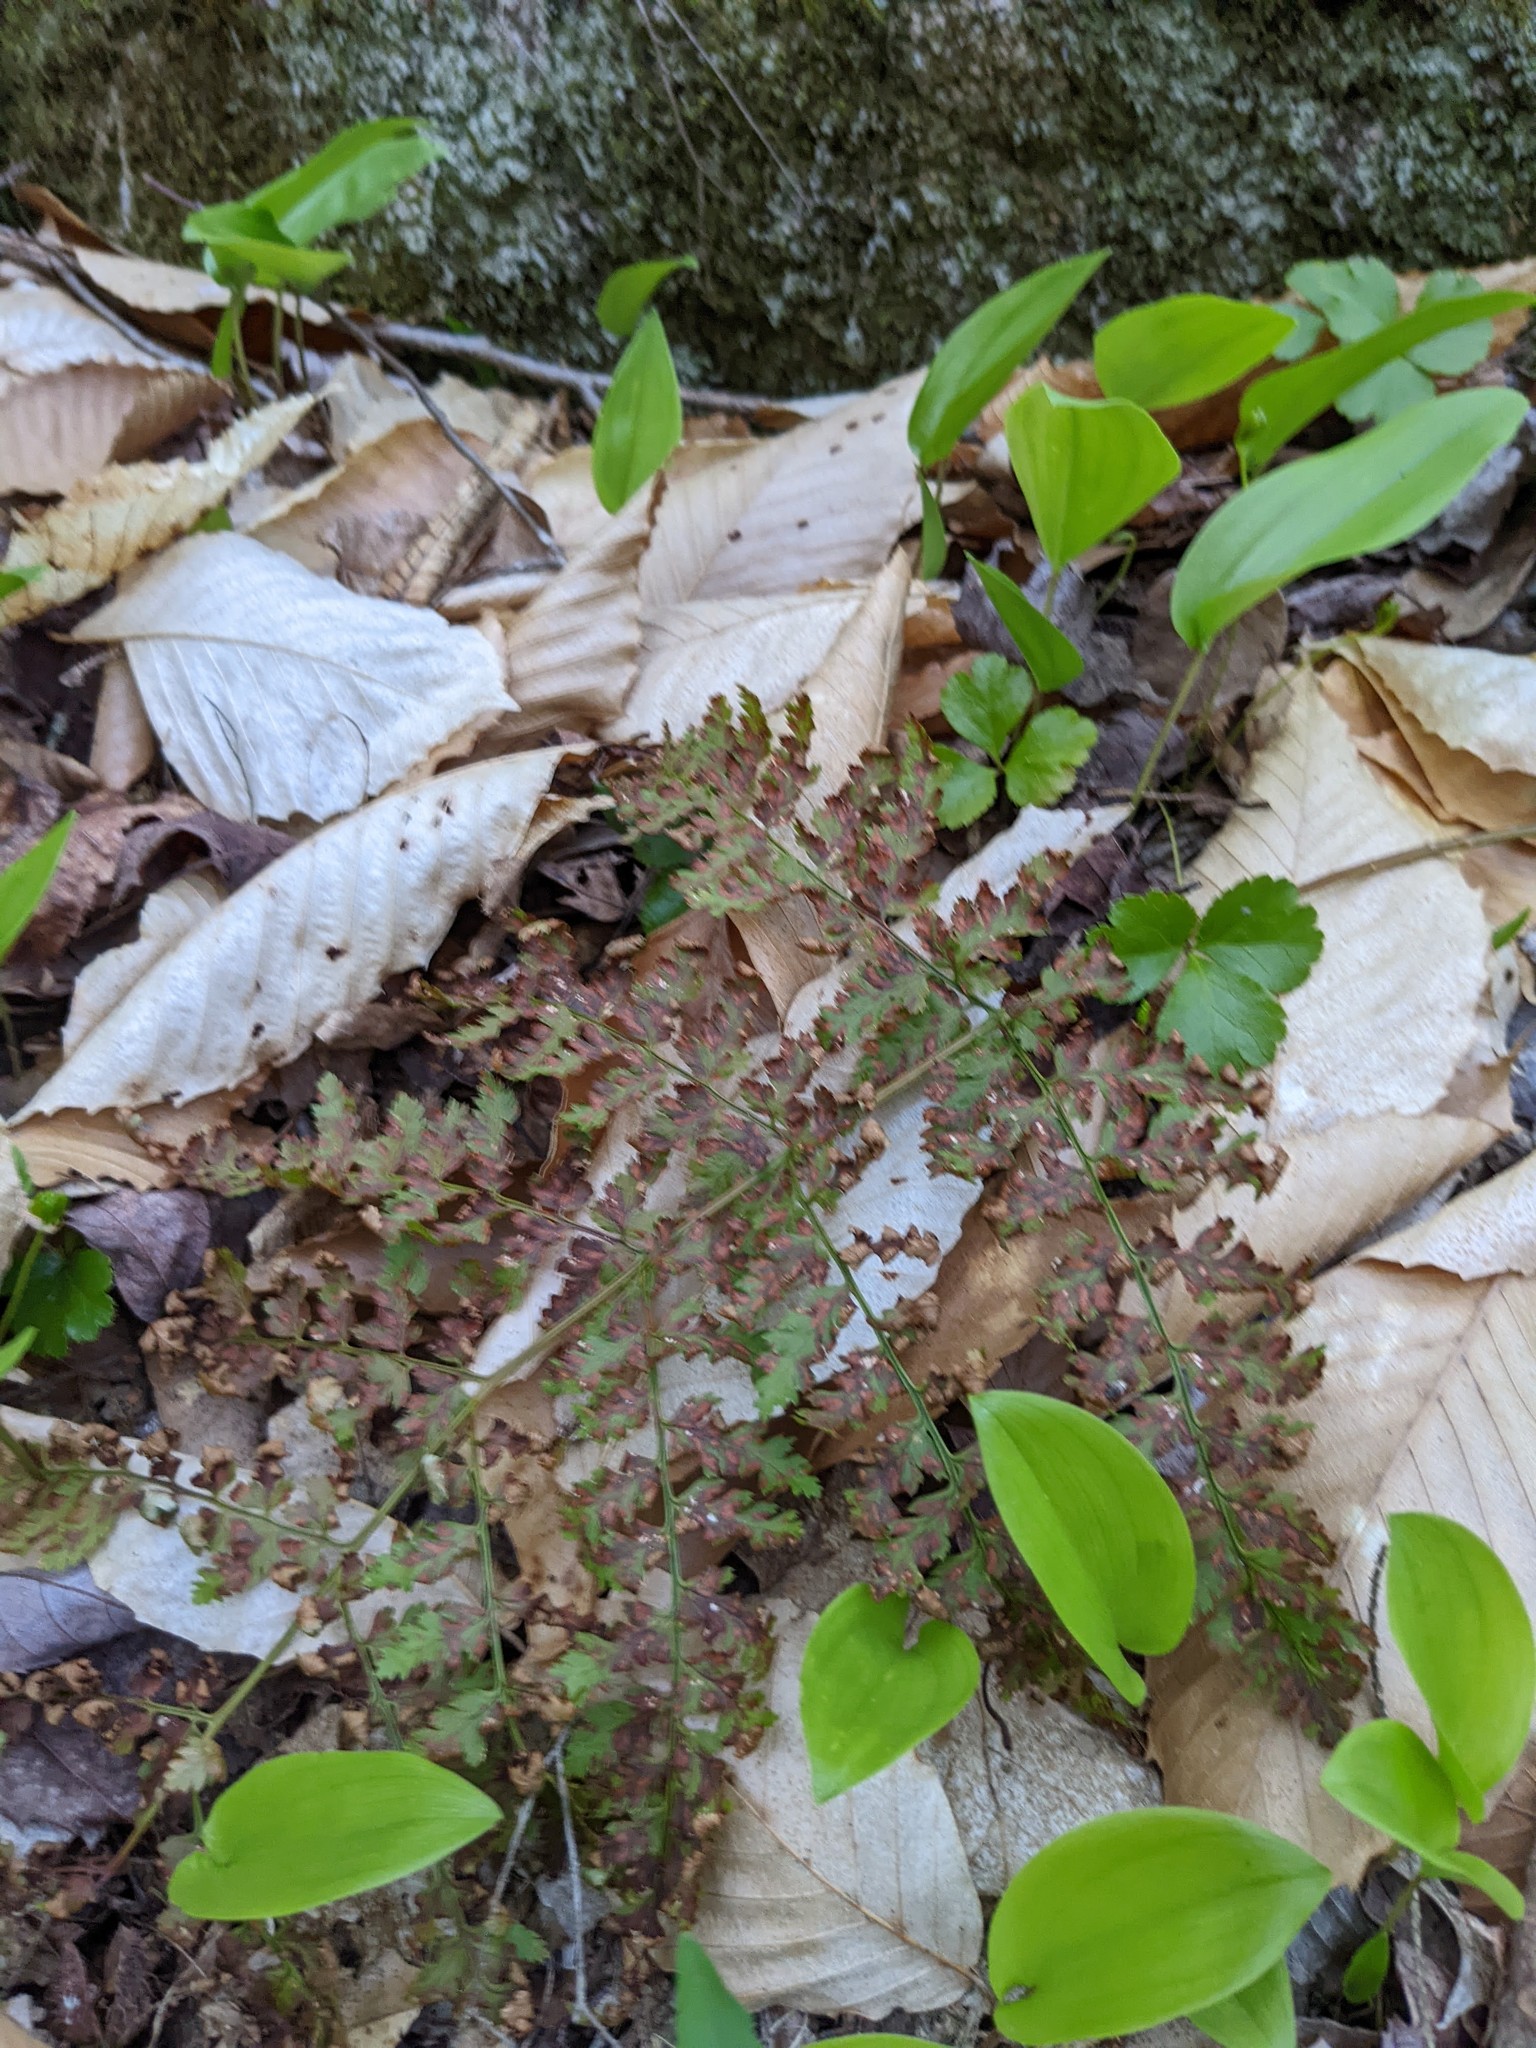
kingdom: Plantae
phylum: Tracheophyta
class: Magnoliopsida
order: Ranunculales
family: Ranunculaceae
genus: Coptis
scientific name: Coptis trifolia
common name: Canker-root
